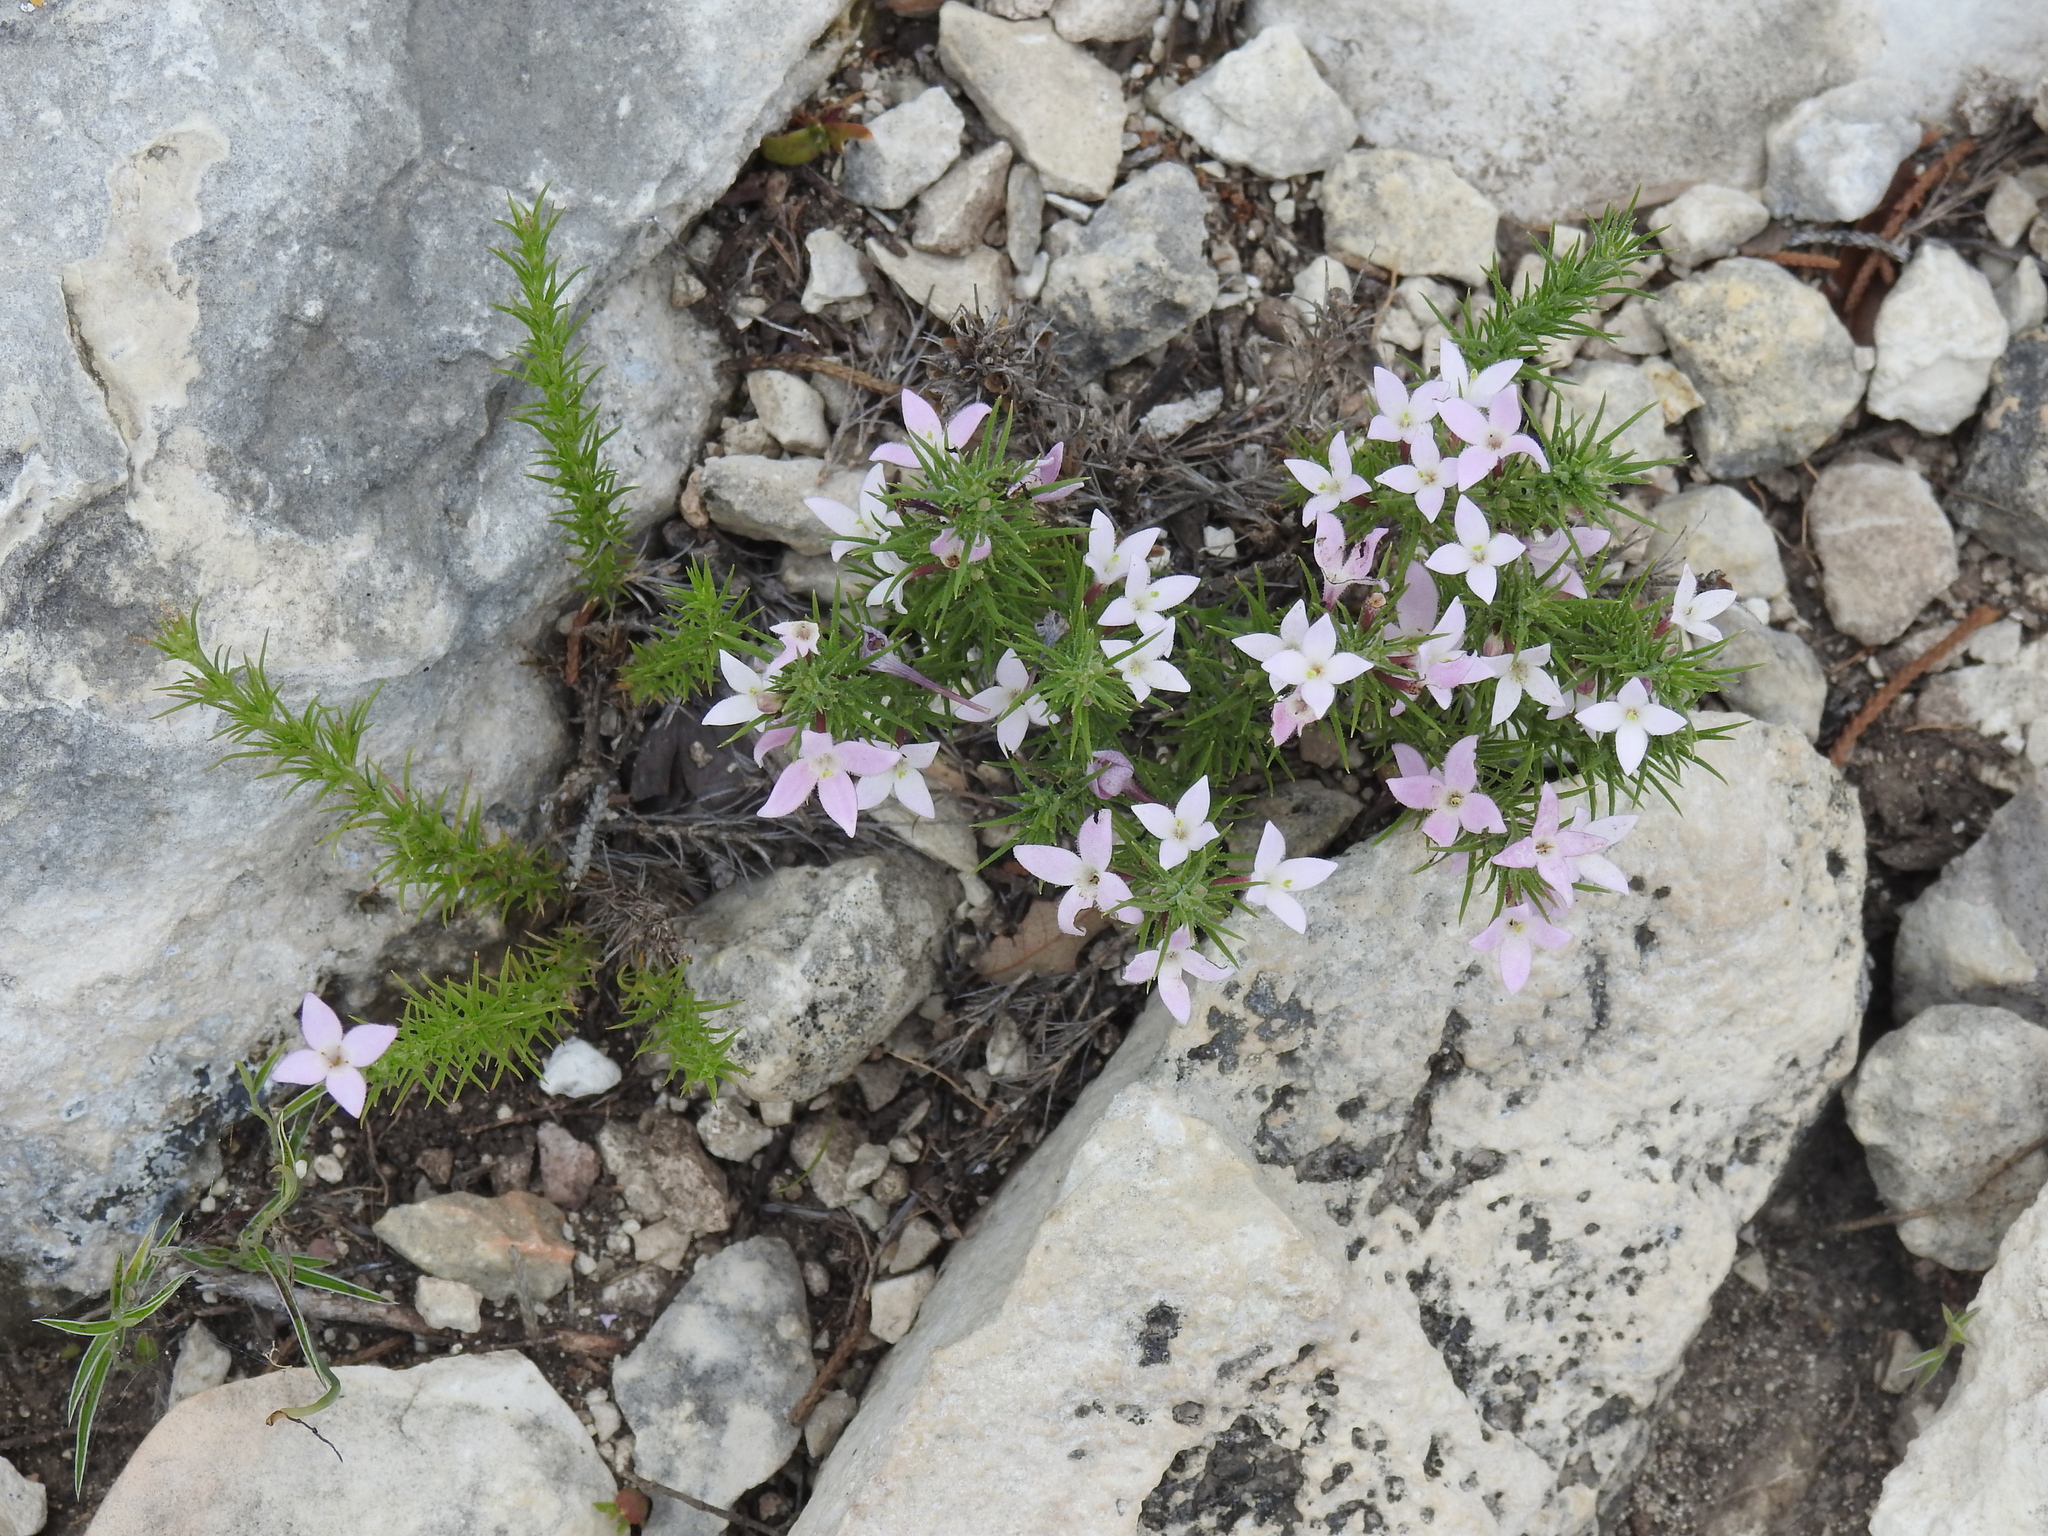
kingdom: Plantae
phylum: Tracheophyta
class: Magnoliopsida
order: Gentianales
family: Rubiaceae
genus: Houstonia
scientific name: Houstonia acerosa
